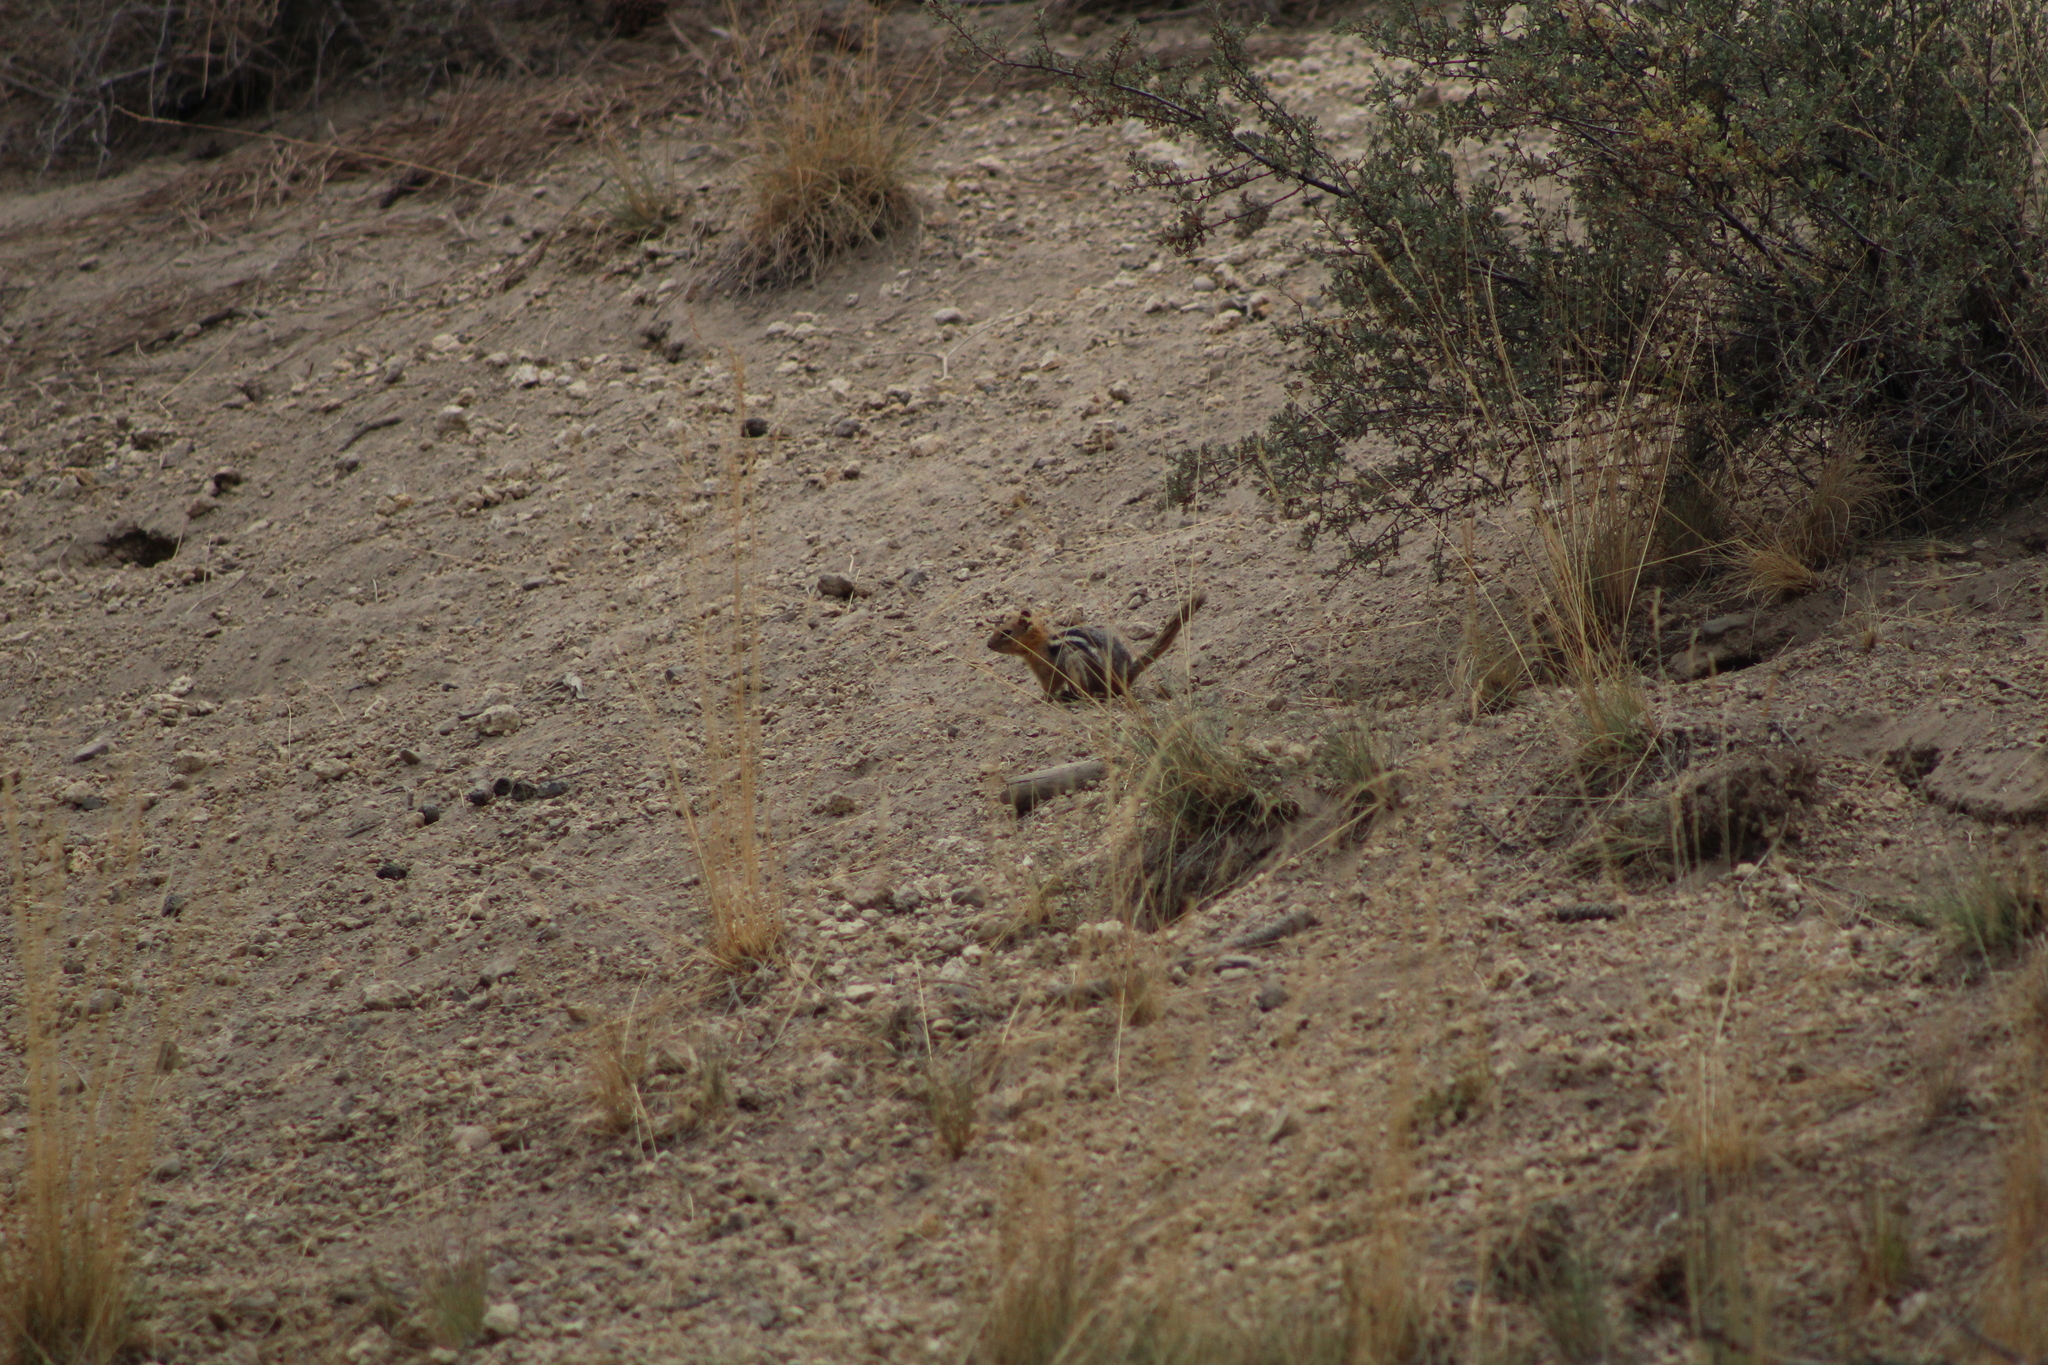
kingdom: Animalia
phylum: Chordata
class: Mammalia
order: Rodentia
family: Sciuridae
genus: Callospermophilus
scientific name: Callospermophilus lateralis
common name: Golden-mantled ground squirrel
